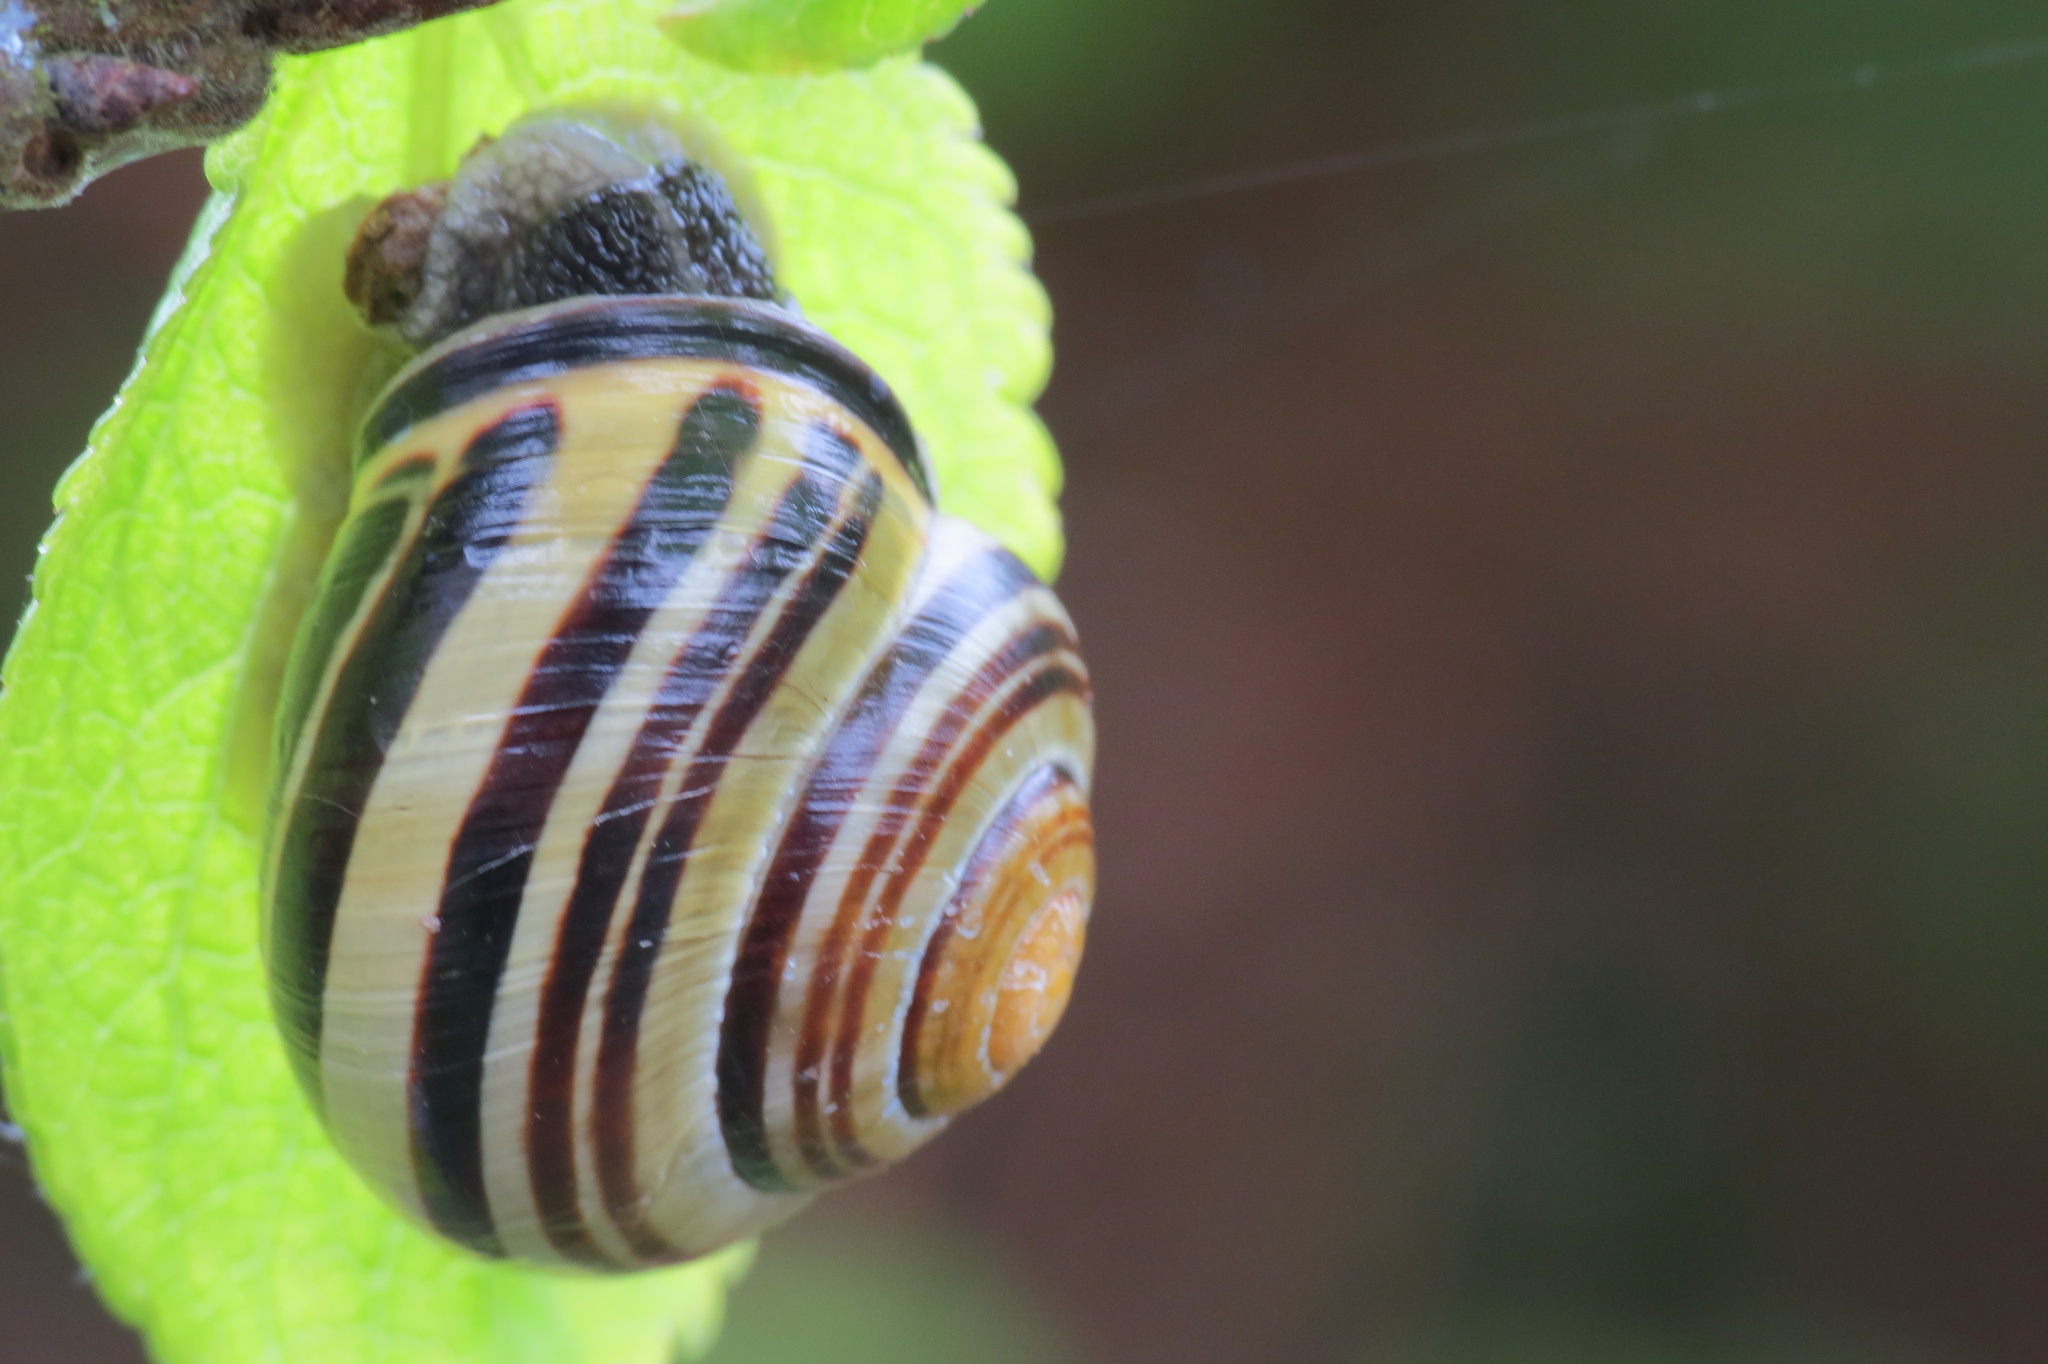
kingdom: Animalia
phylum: Mollusca
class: Gastropoda
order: Stylommatophora
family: Helicidae
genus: Cepaea
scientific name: Cepaea nemoralis
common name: Grovesnail
